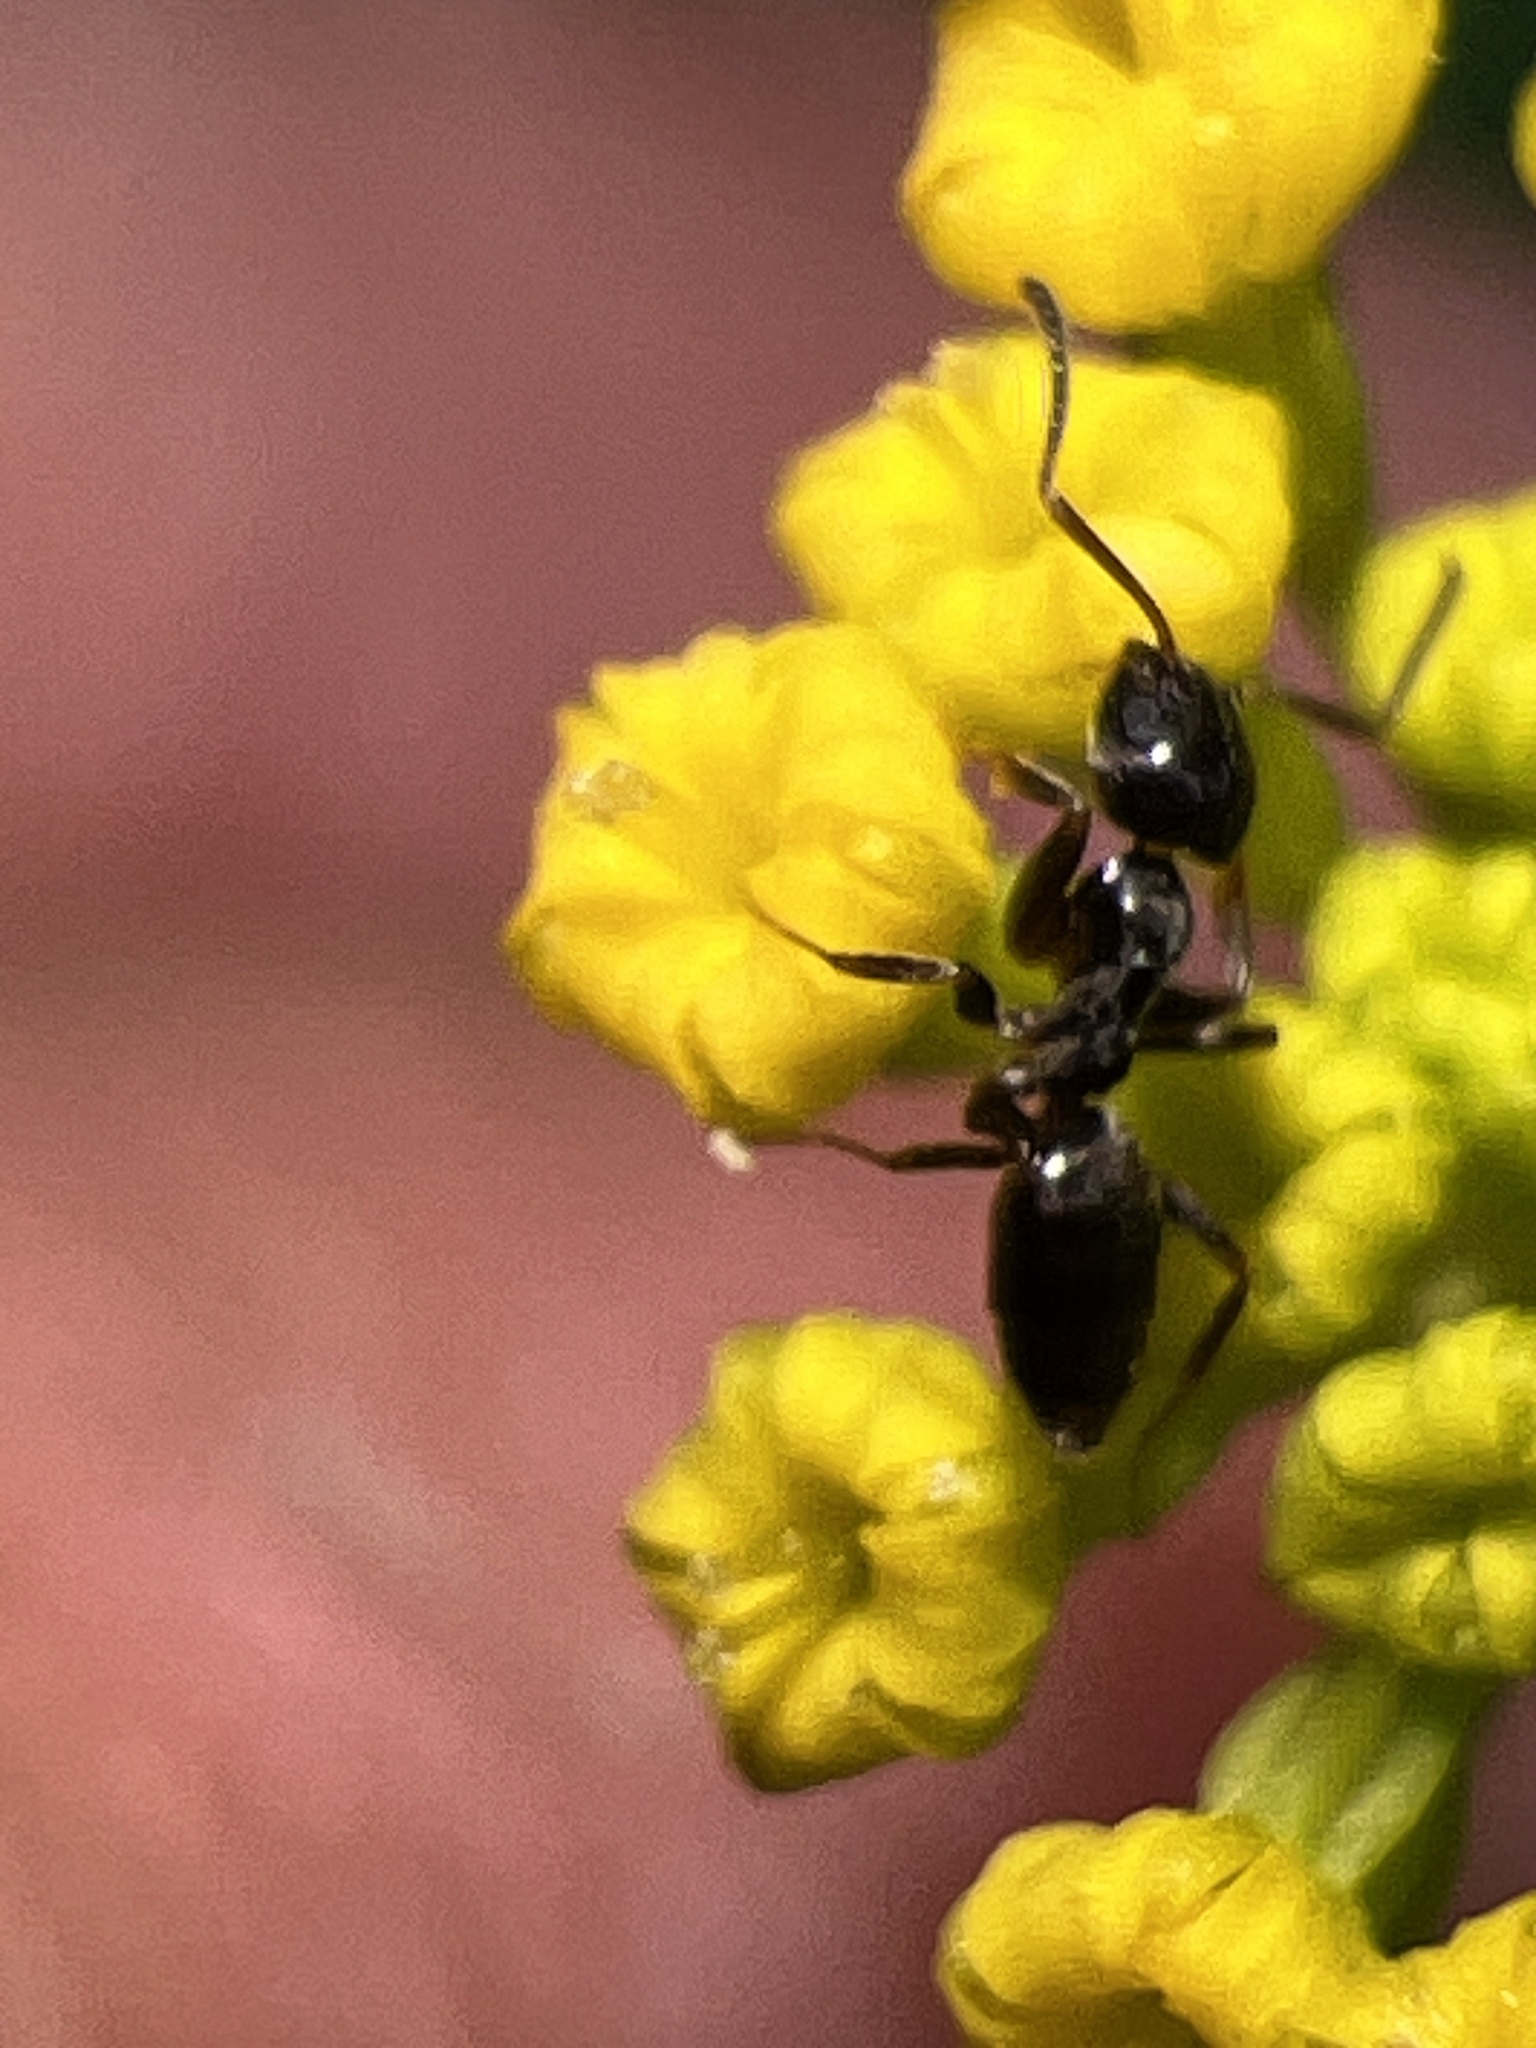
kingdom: Animalia
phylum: Arthropoda
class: Insecta
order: Hymenoptera
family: Formicidae
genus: Tapinoma
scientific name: Tapinoma sessile
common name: Odorous house ant
